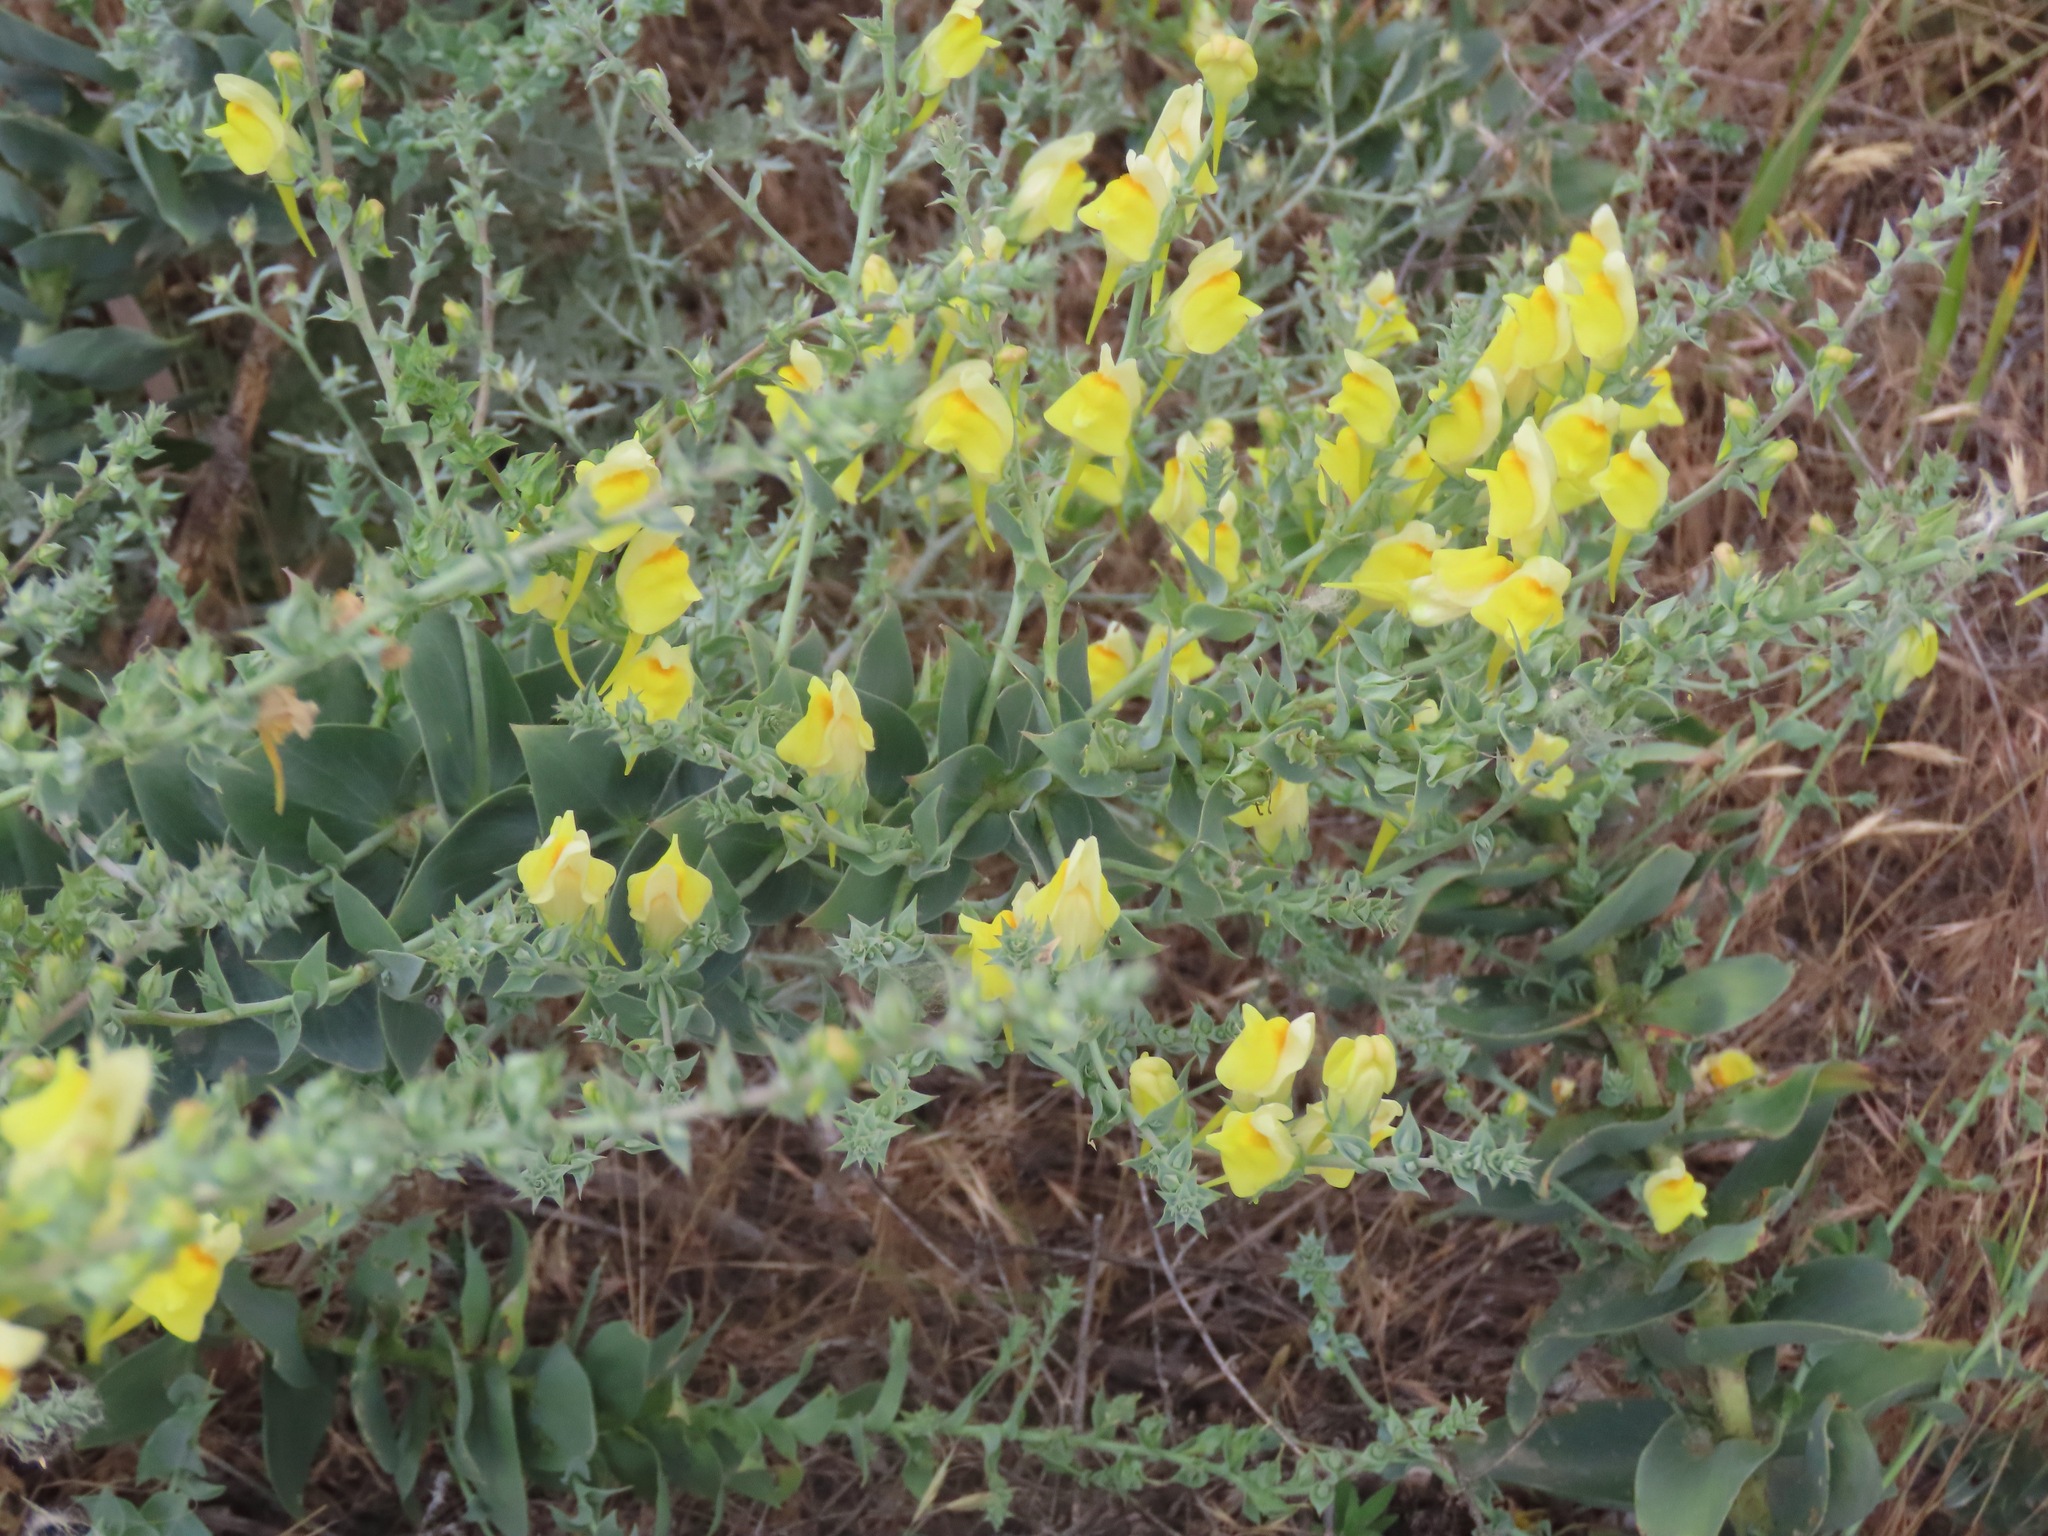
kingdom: Plantae
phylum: Tracheophyta
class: Magnoliopsida
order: Lamiales
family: Plantaginaceae
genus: Linaria
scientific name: Linaria dalmatica
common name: Dalmatian toadflax
